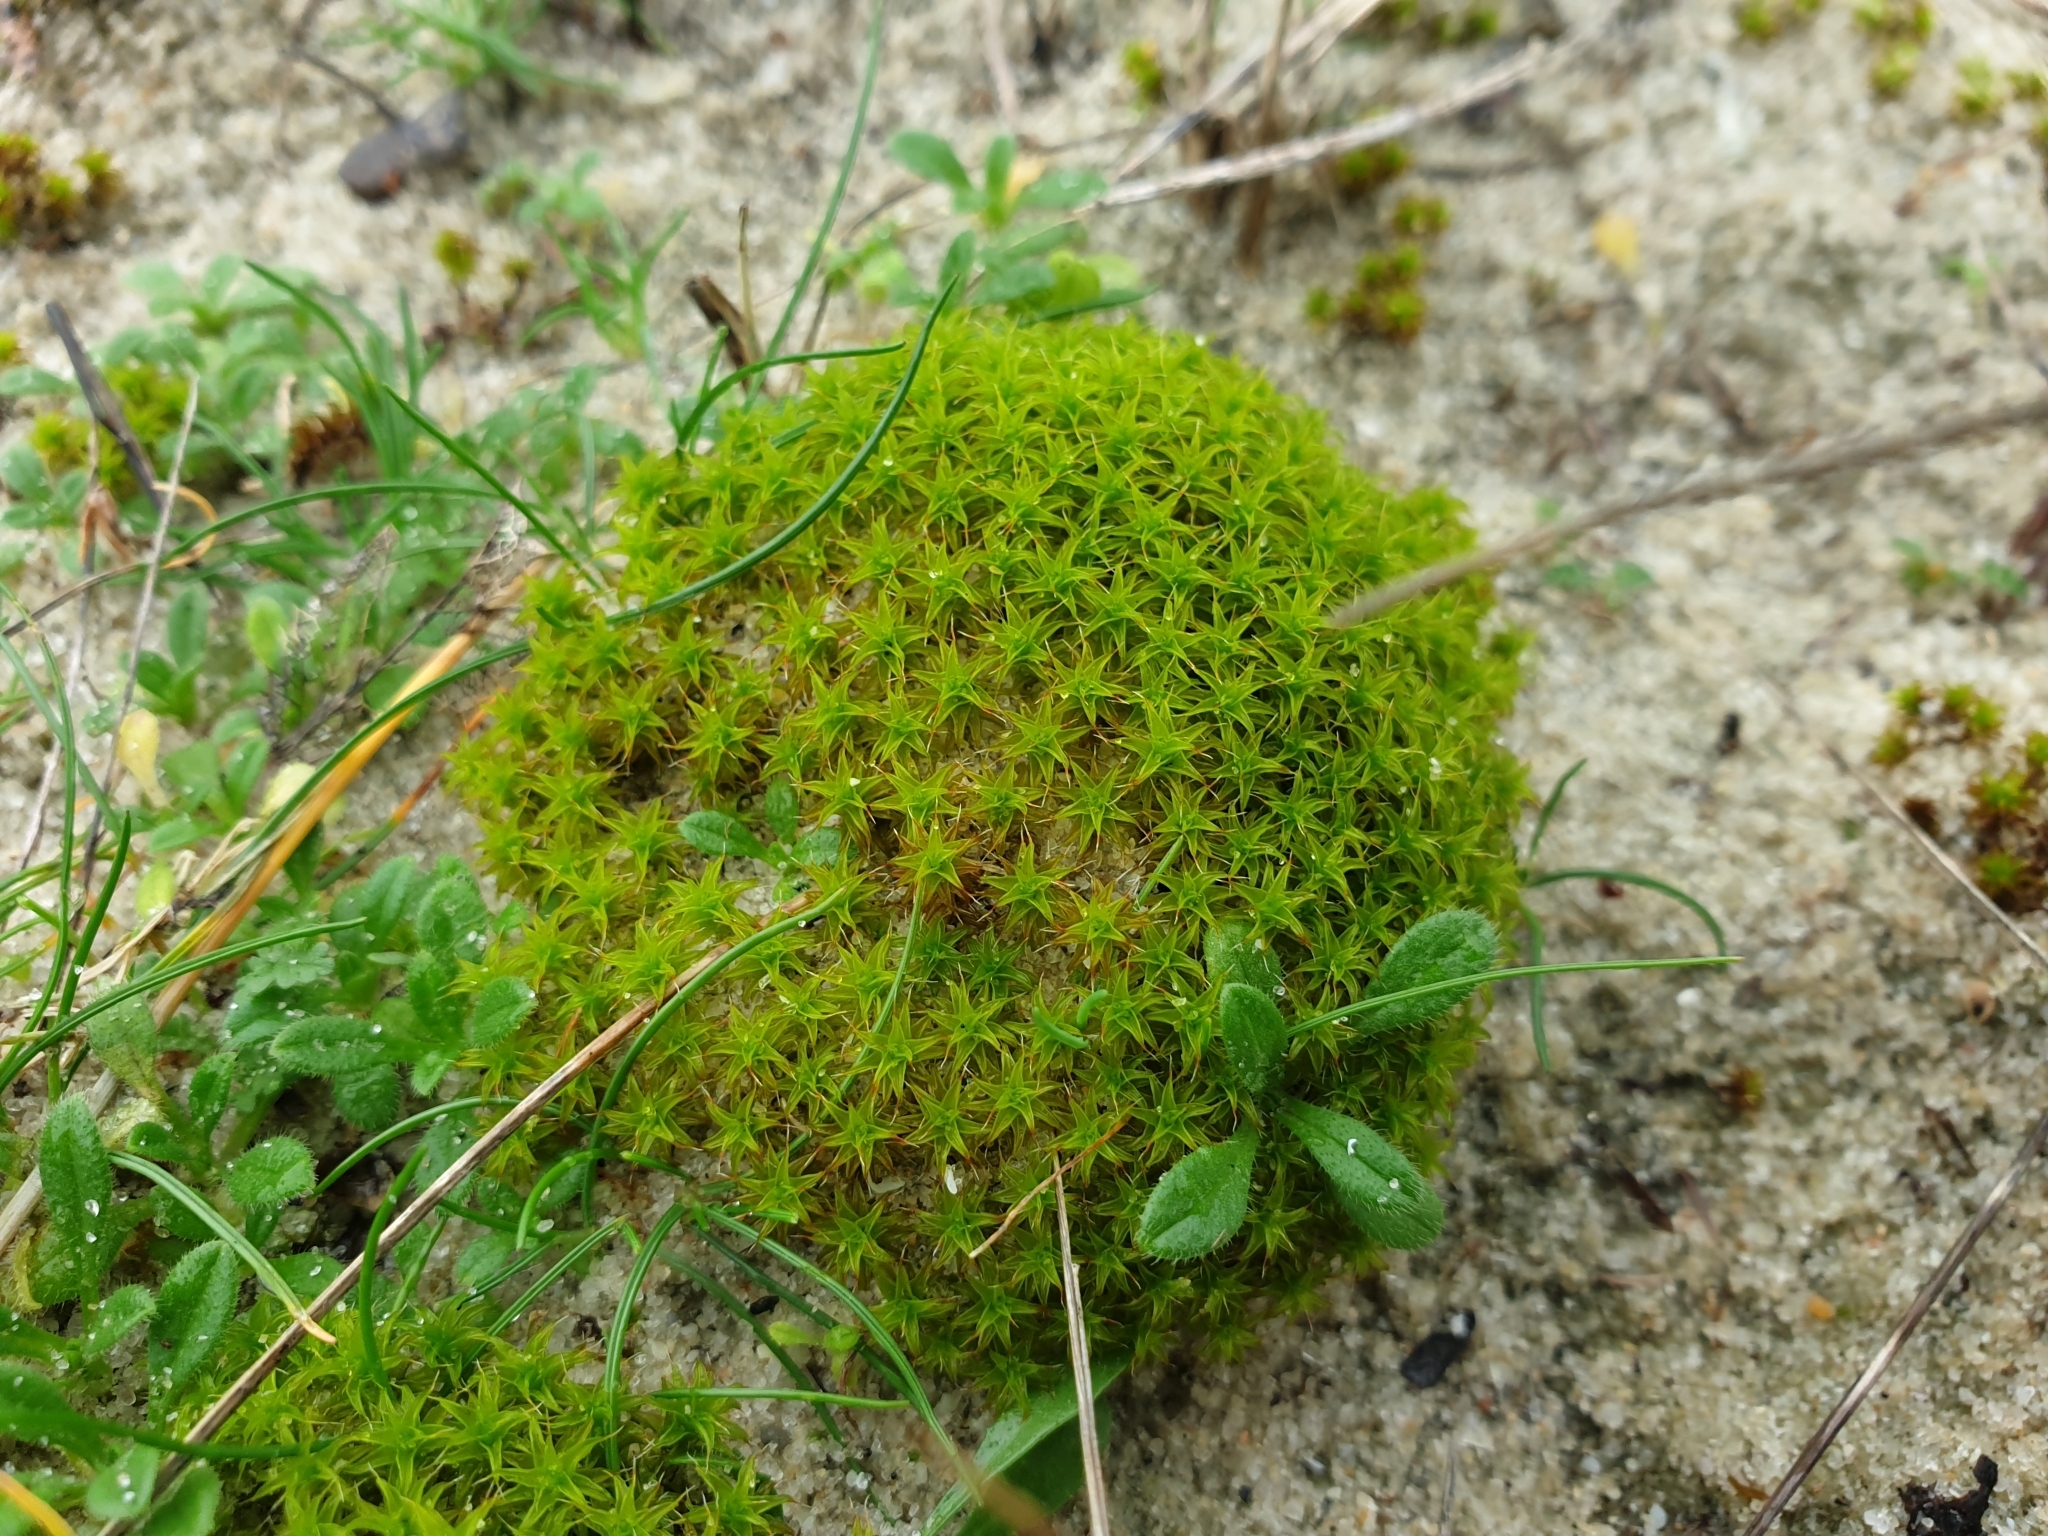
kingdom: Plantae
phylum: Bryophyta
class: Bryopsida
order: Pottiales
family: Pottiaceae
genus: Syntrichia
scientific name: Syntrichia ruralis
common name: Sidewalk screw moss
